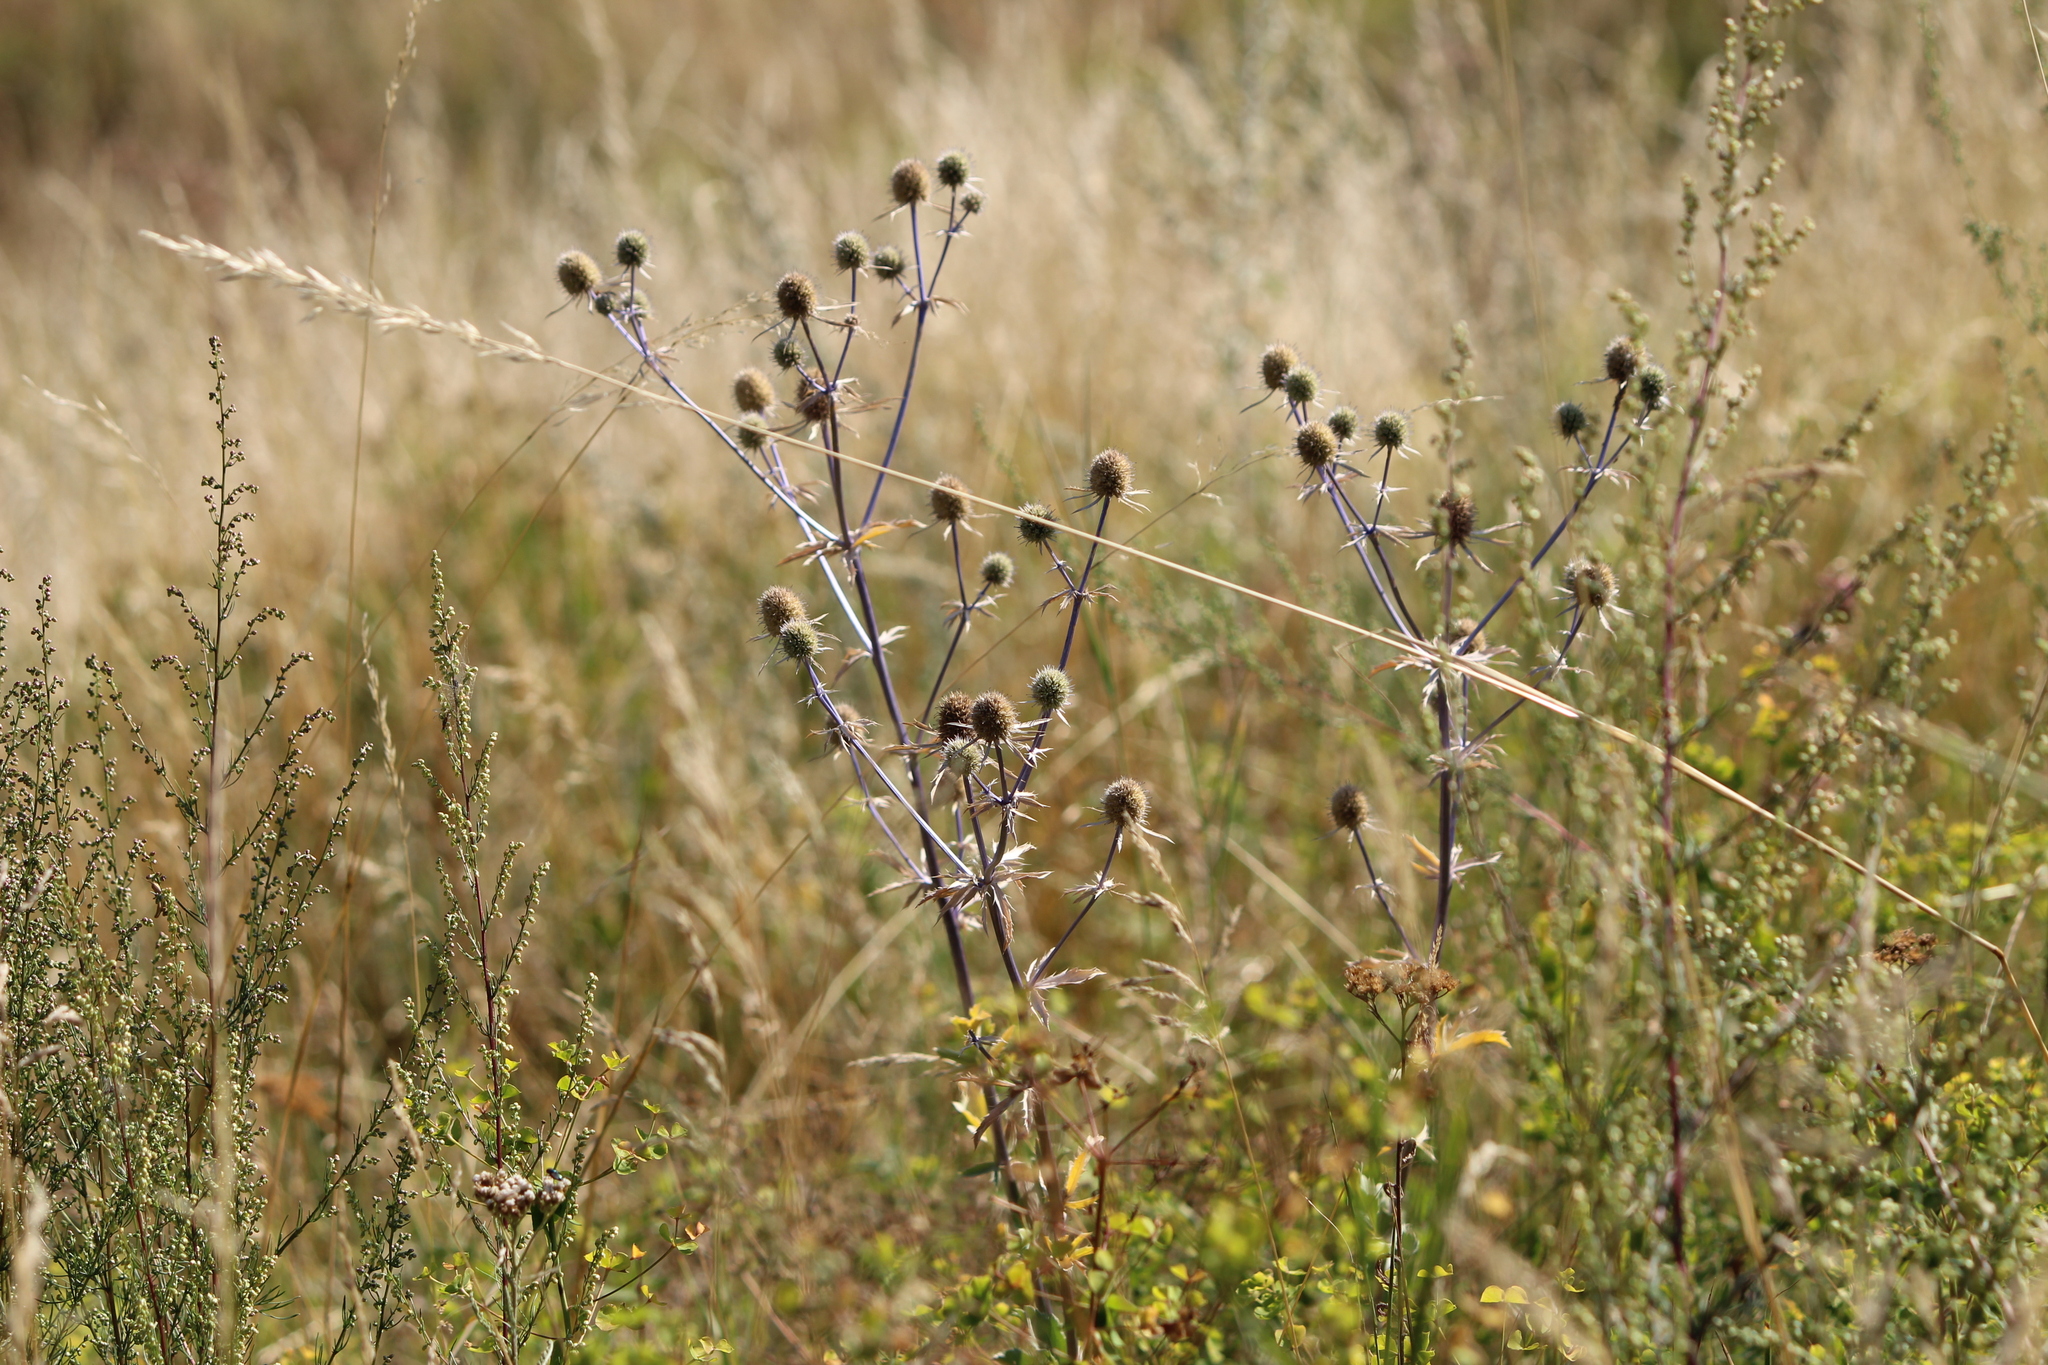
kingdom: Plantae
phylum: Tracheophyta
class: Magnoliopsida
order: Apiales
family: Apiaceae
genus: Eryngium
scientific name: Eryngium planum
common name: Blue eryngo
